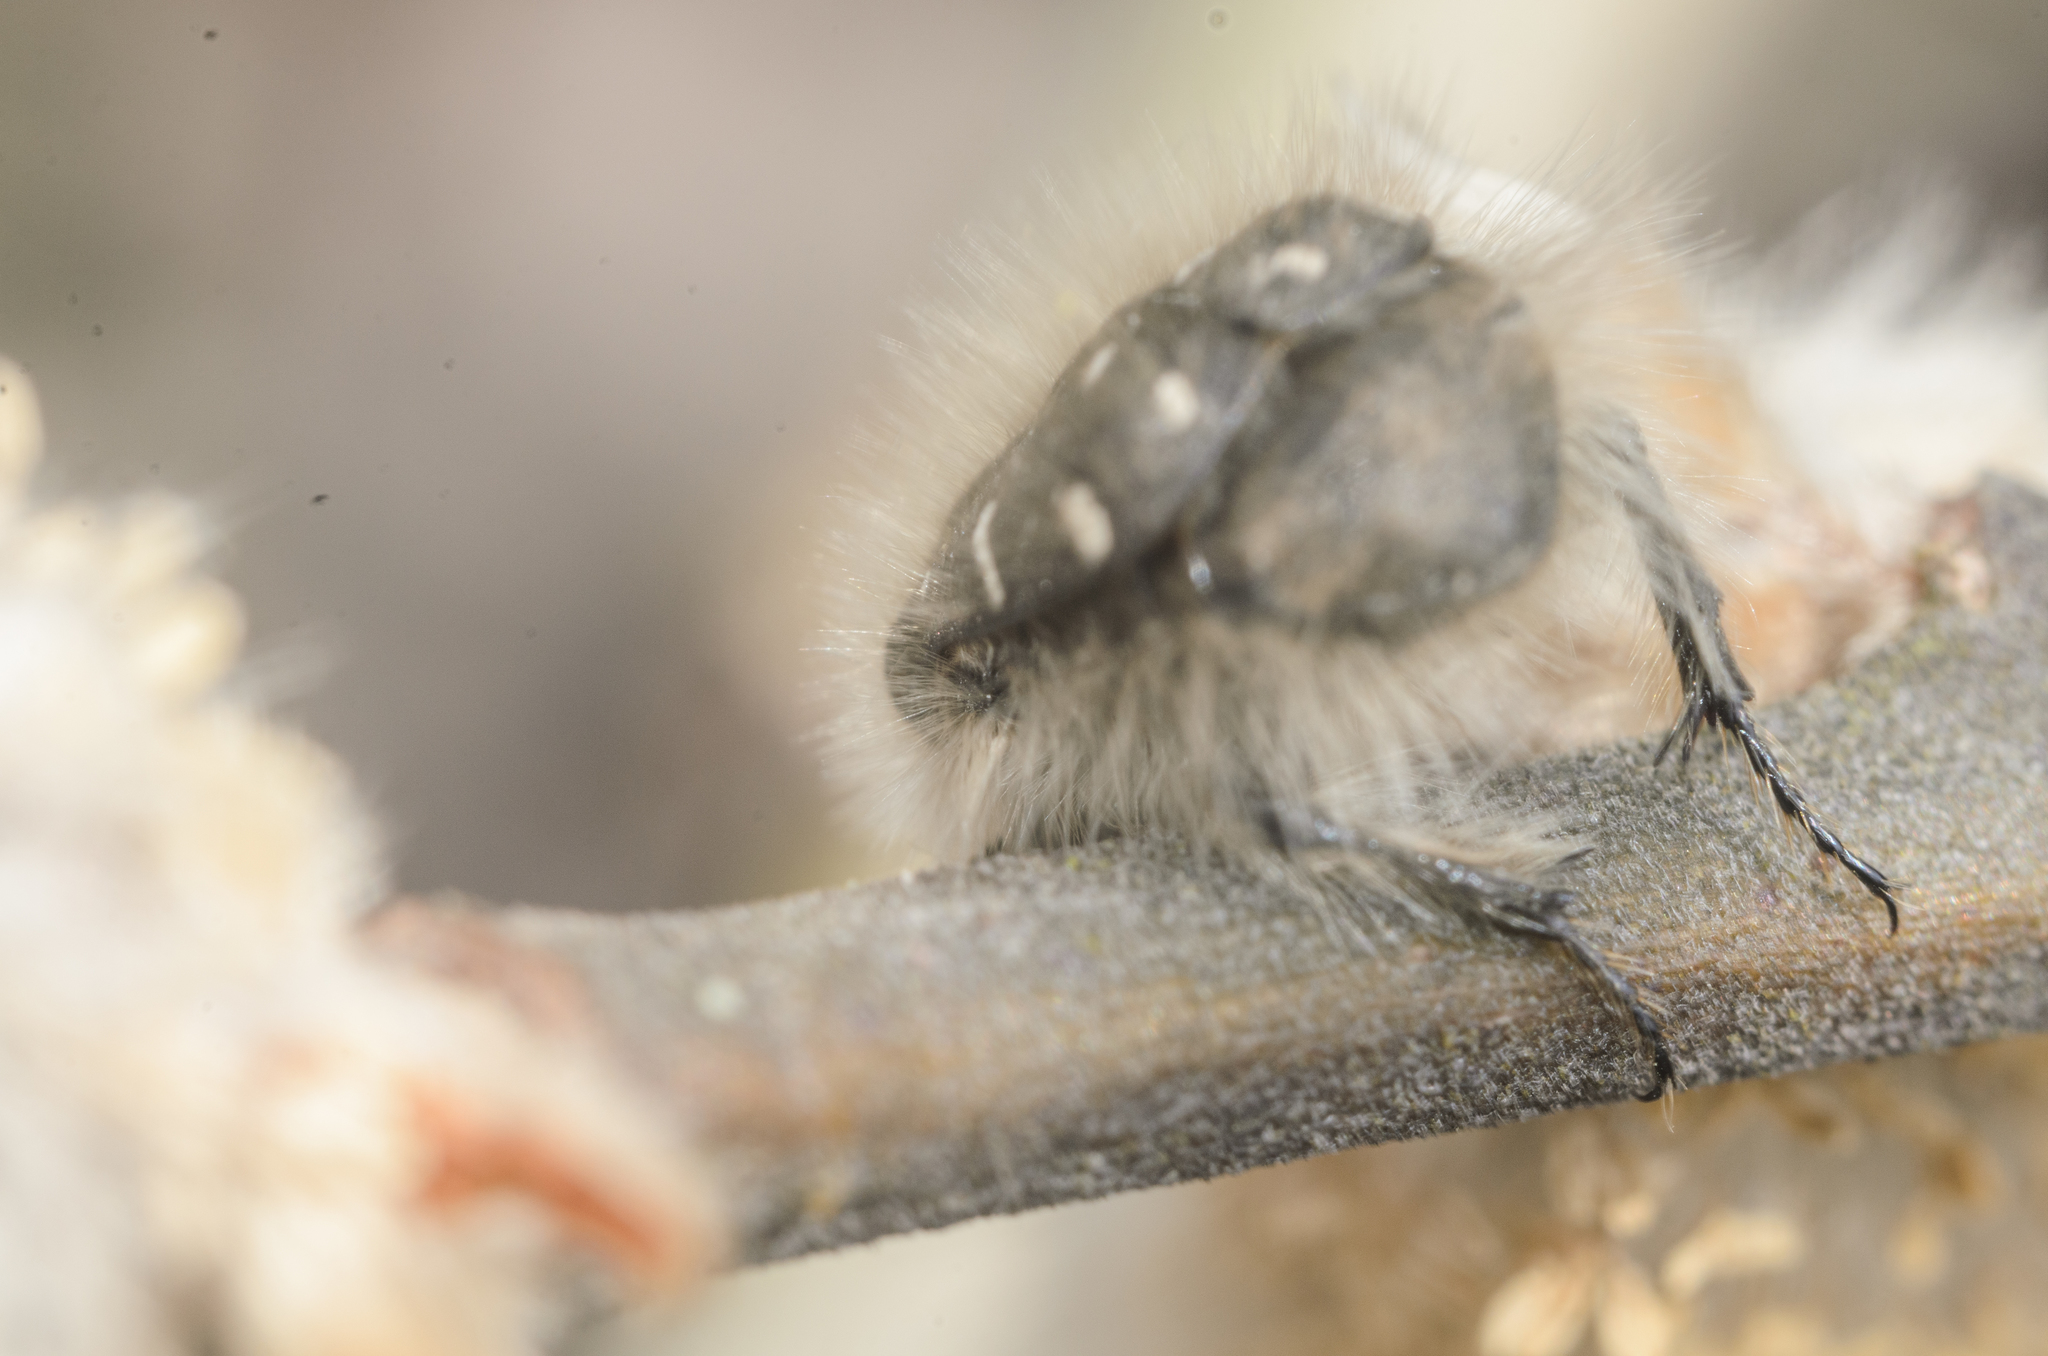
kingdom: Animalia
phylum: Arthropoda
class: Insecta
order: Coleoptera
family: Scarabaeidae
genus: Tropinota
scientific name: Tropinota hirta
